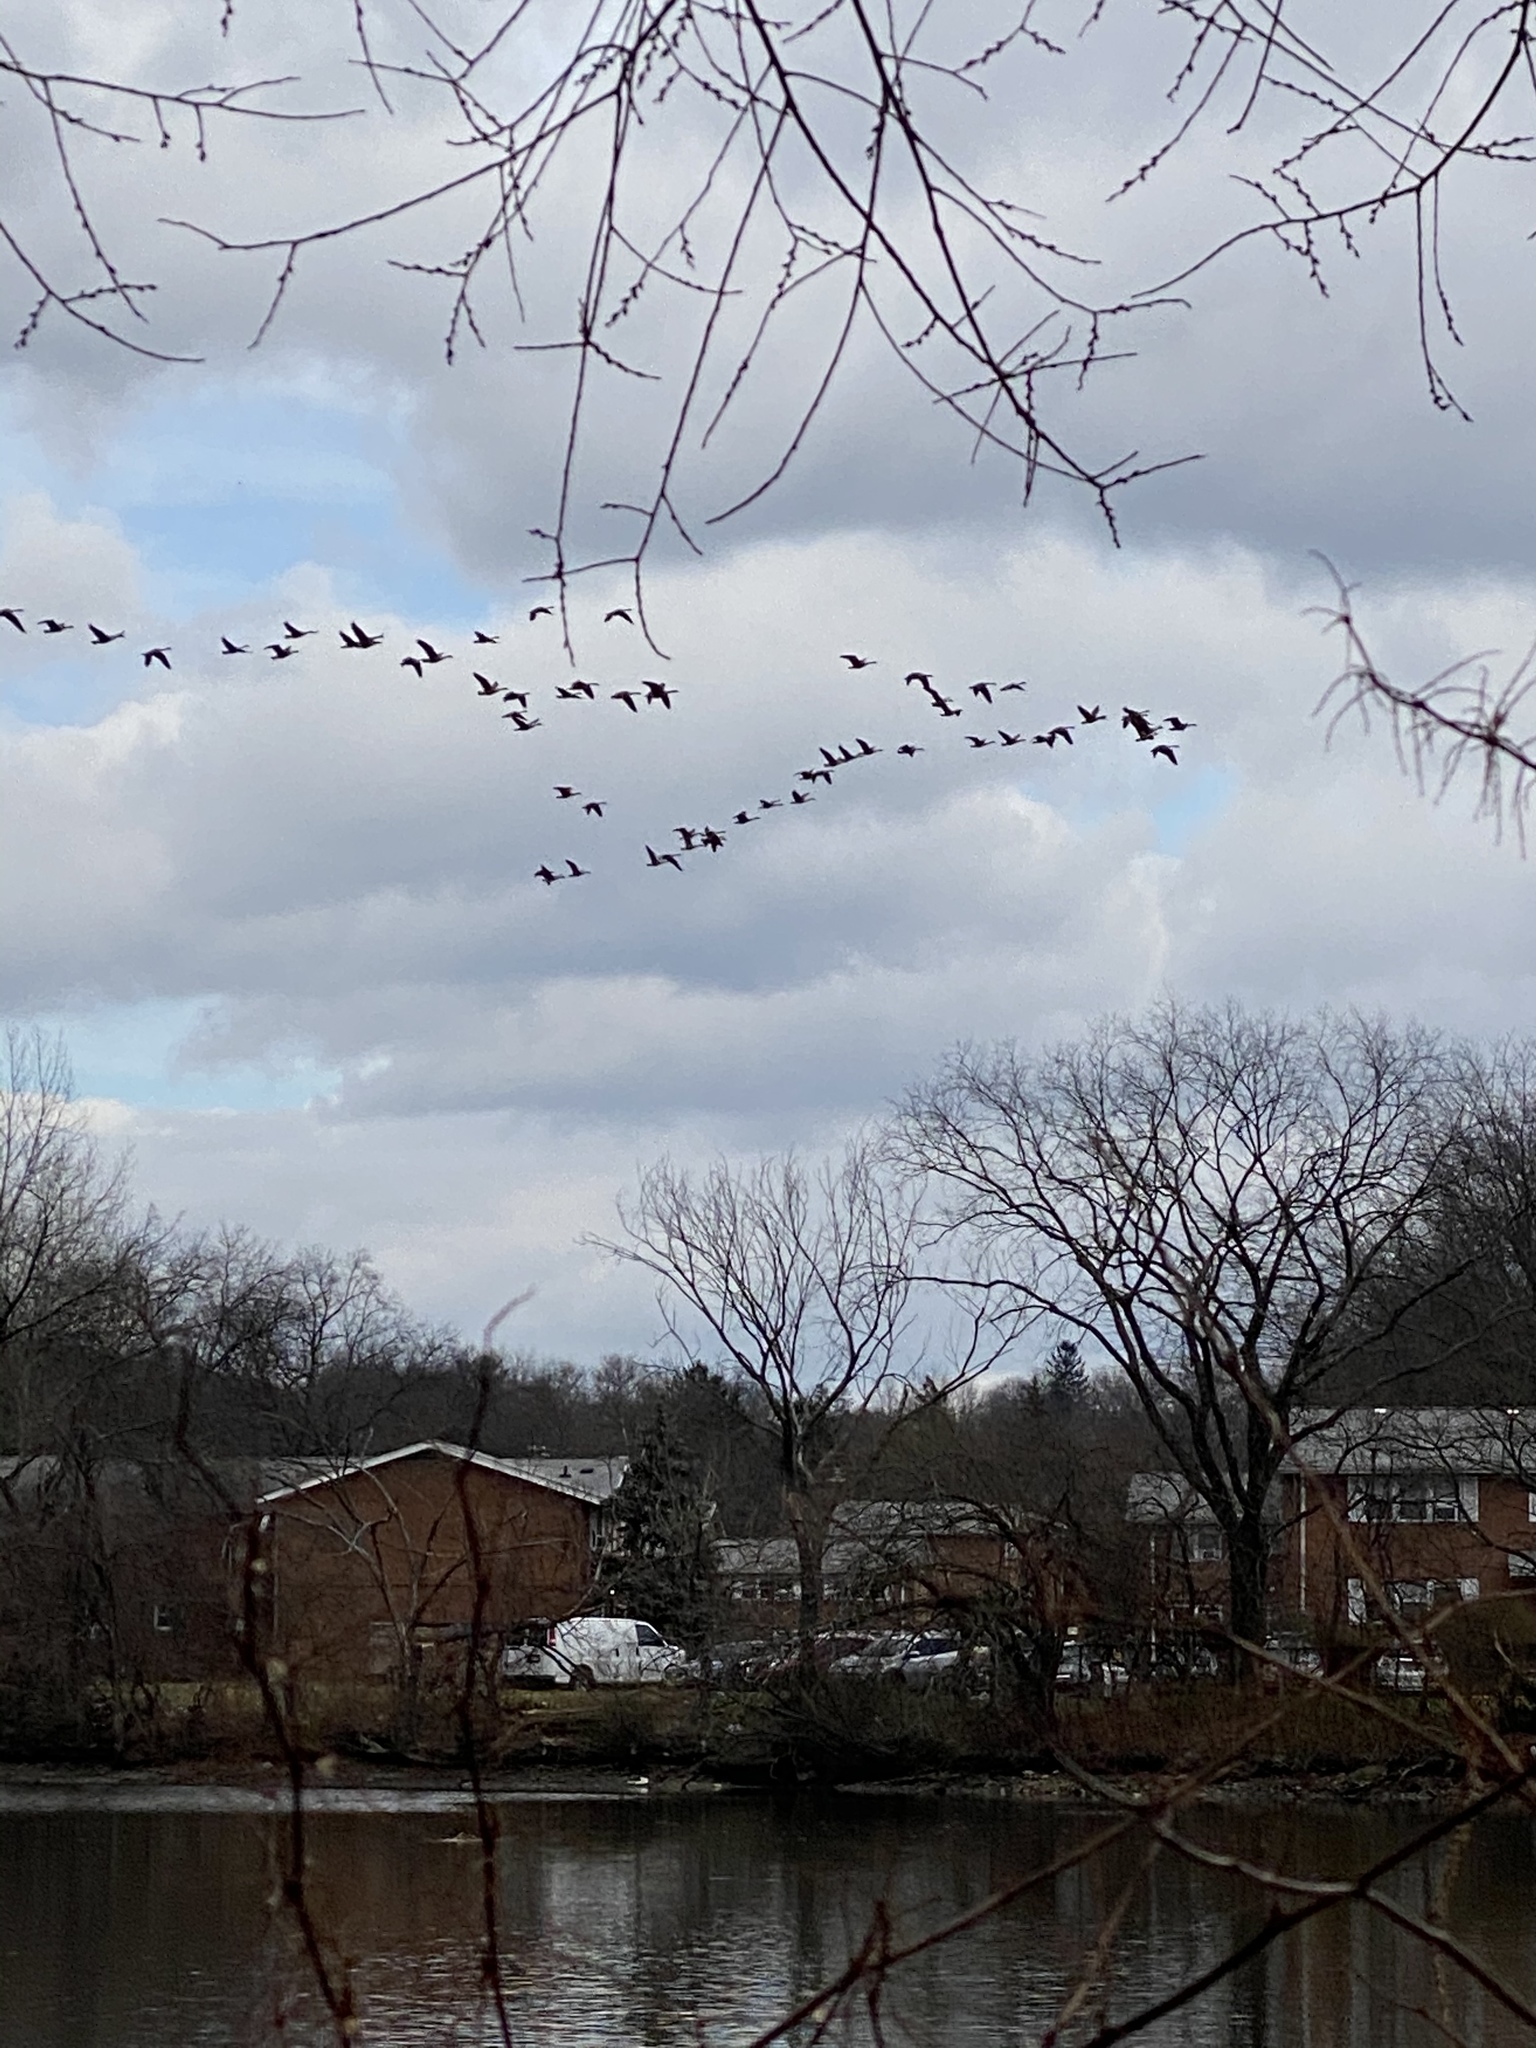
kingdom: Animalia
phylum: Chordata
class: Aves
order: Anseriformes
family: Anatidae
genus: Branta
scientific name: Branta canadensis
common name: Canada goose
